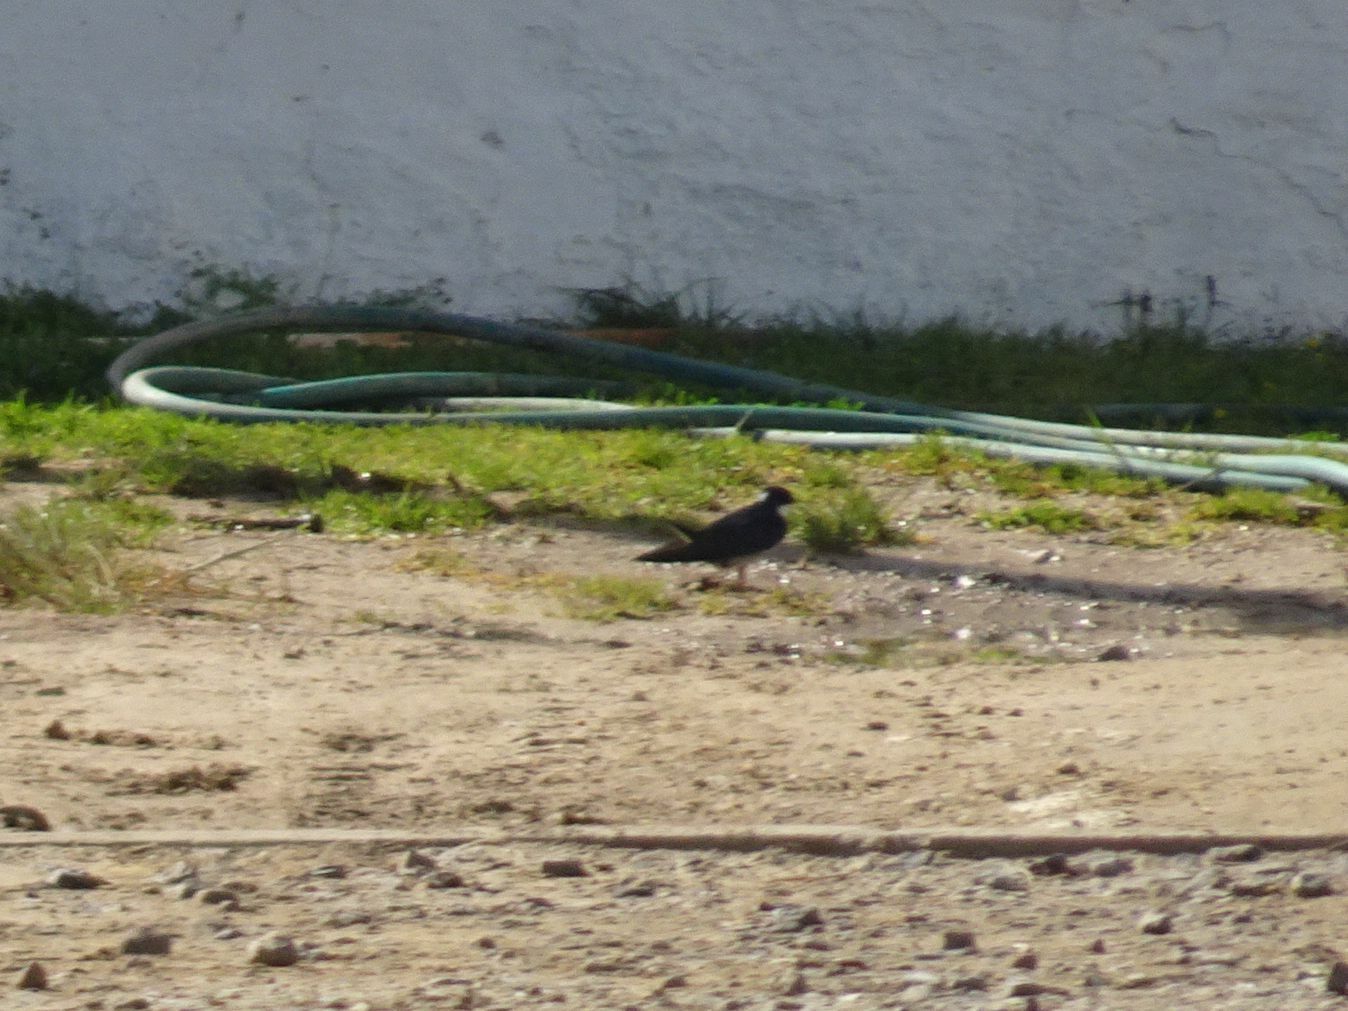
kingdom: Animalia
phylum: Chordata
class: Aves
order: Passeriformes
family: Hirundinidae
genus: Hirundo
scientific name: Hirundo dimidiata
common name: Pearl-breasted swallow
